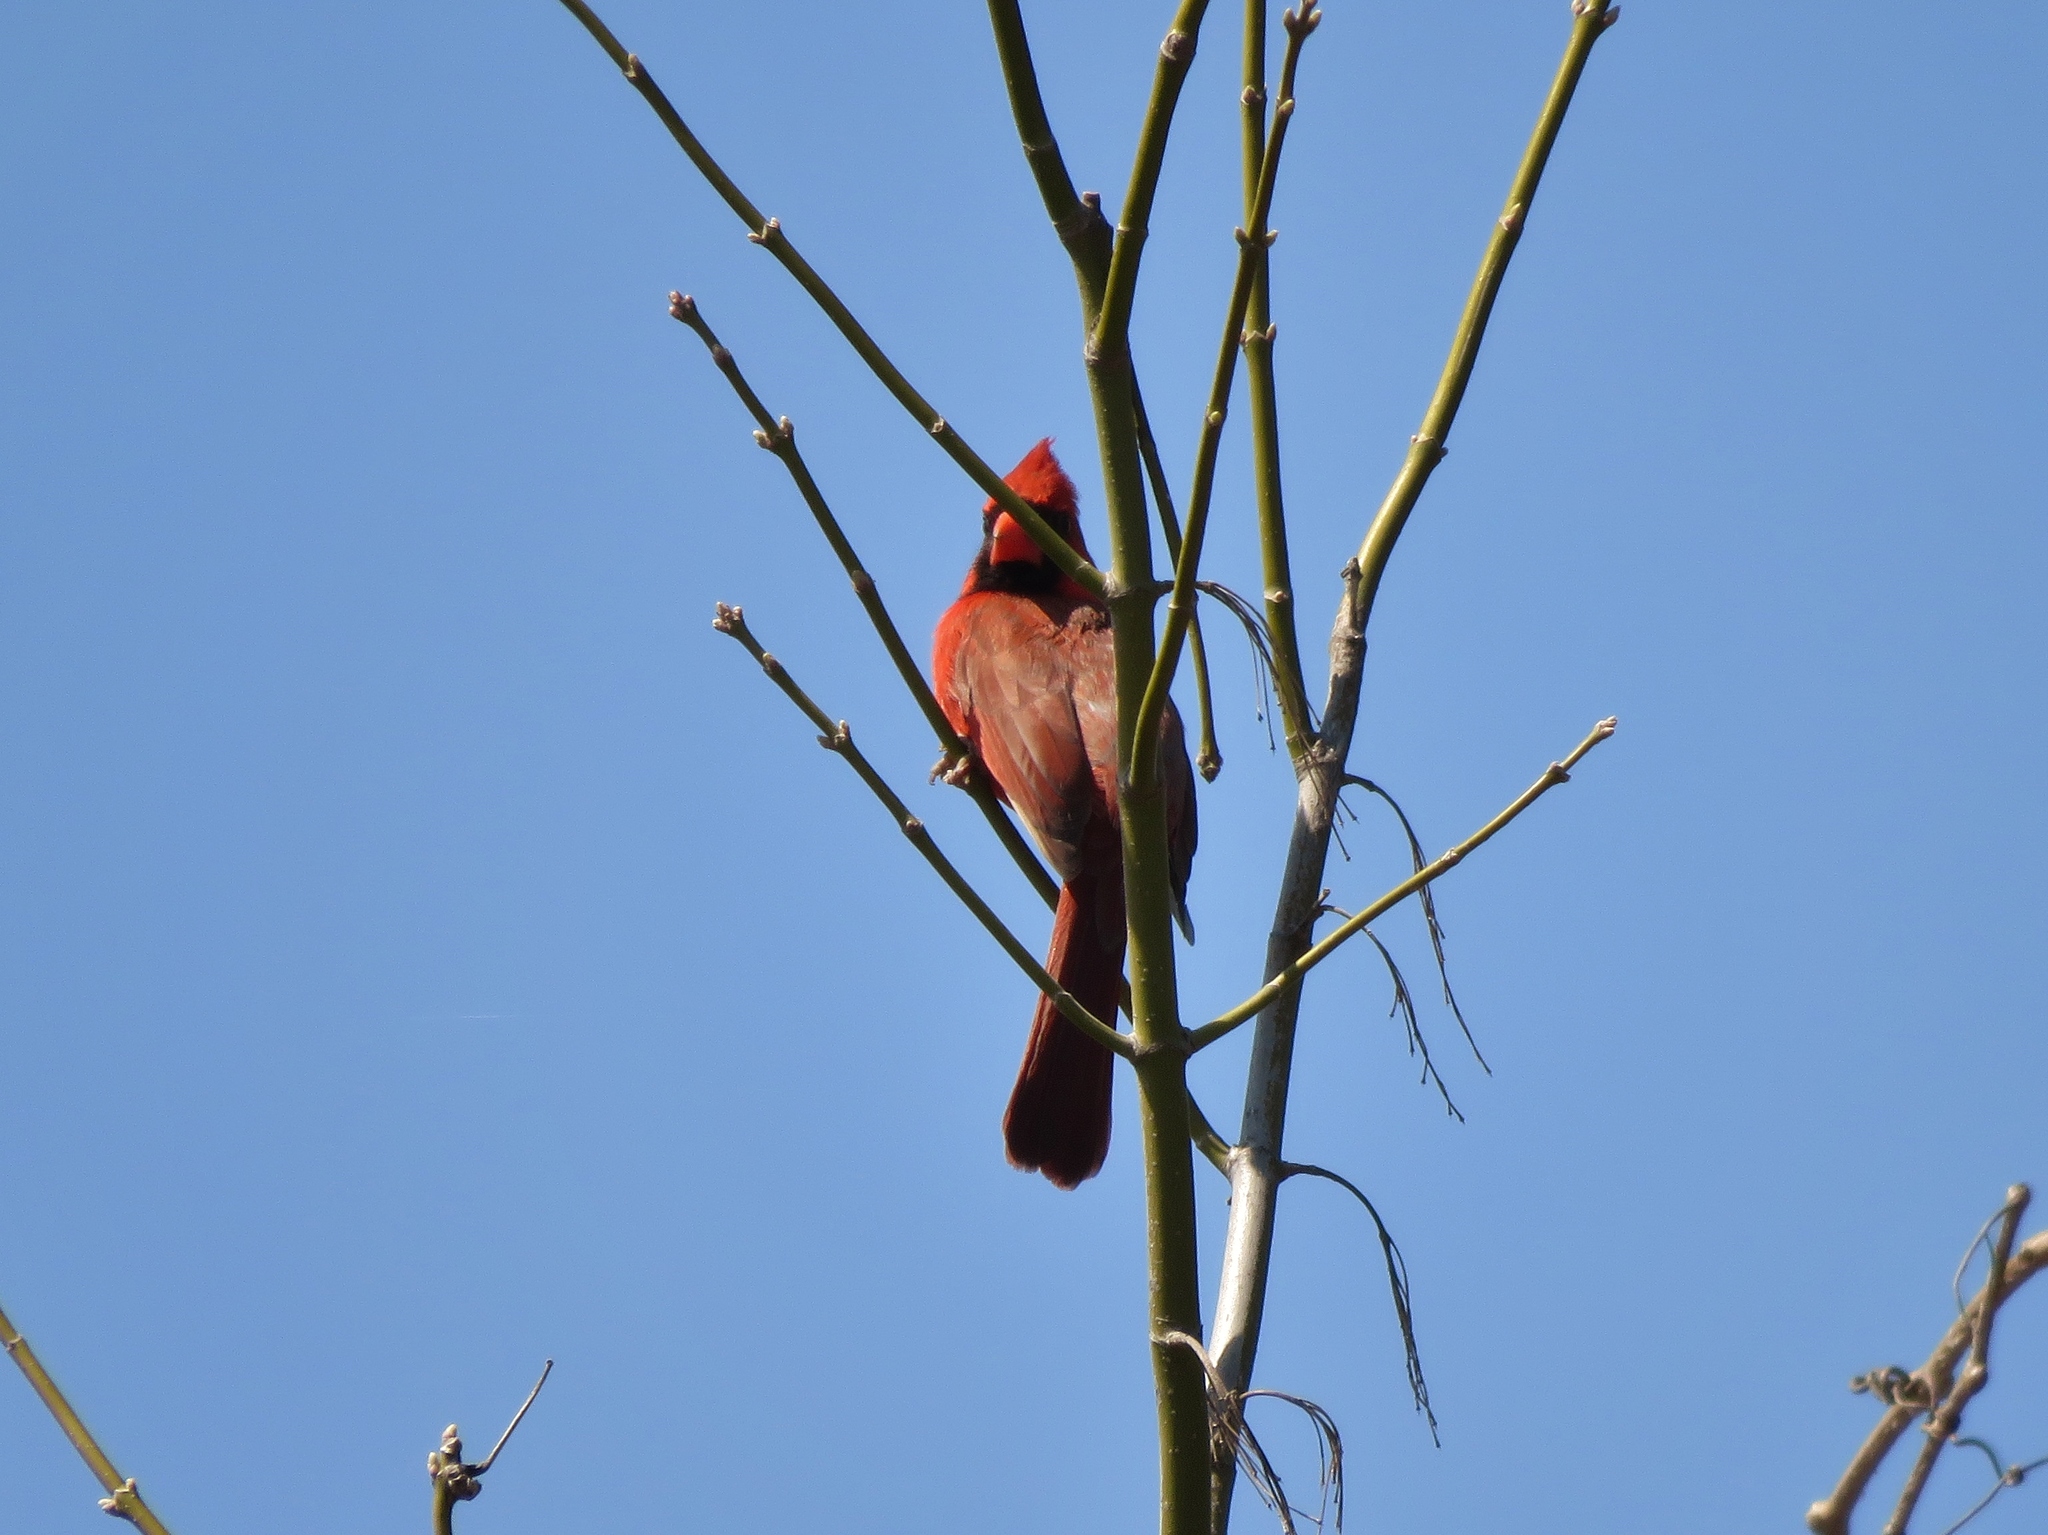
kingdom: Animalia
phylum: Chordata
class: Aves
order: Passeriformes
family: Cardinalidae
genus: Cardinalis
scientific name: Cardinalis cardinalis
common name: Northern cardinal
